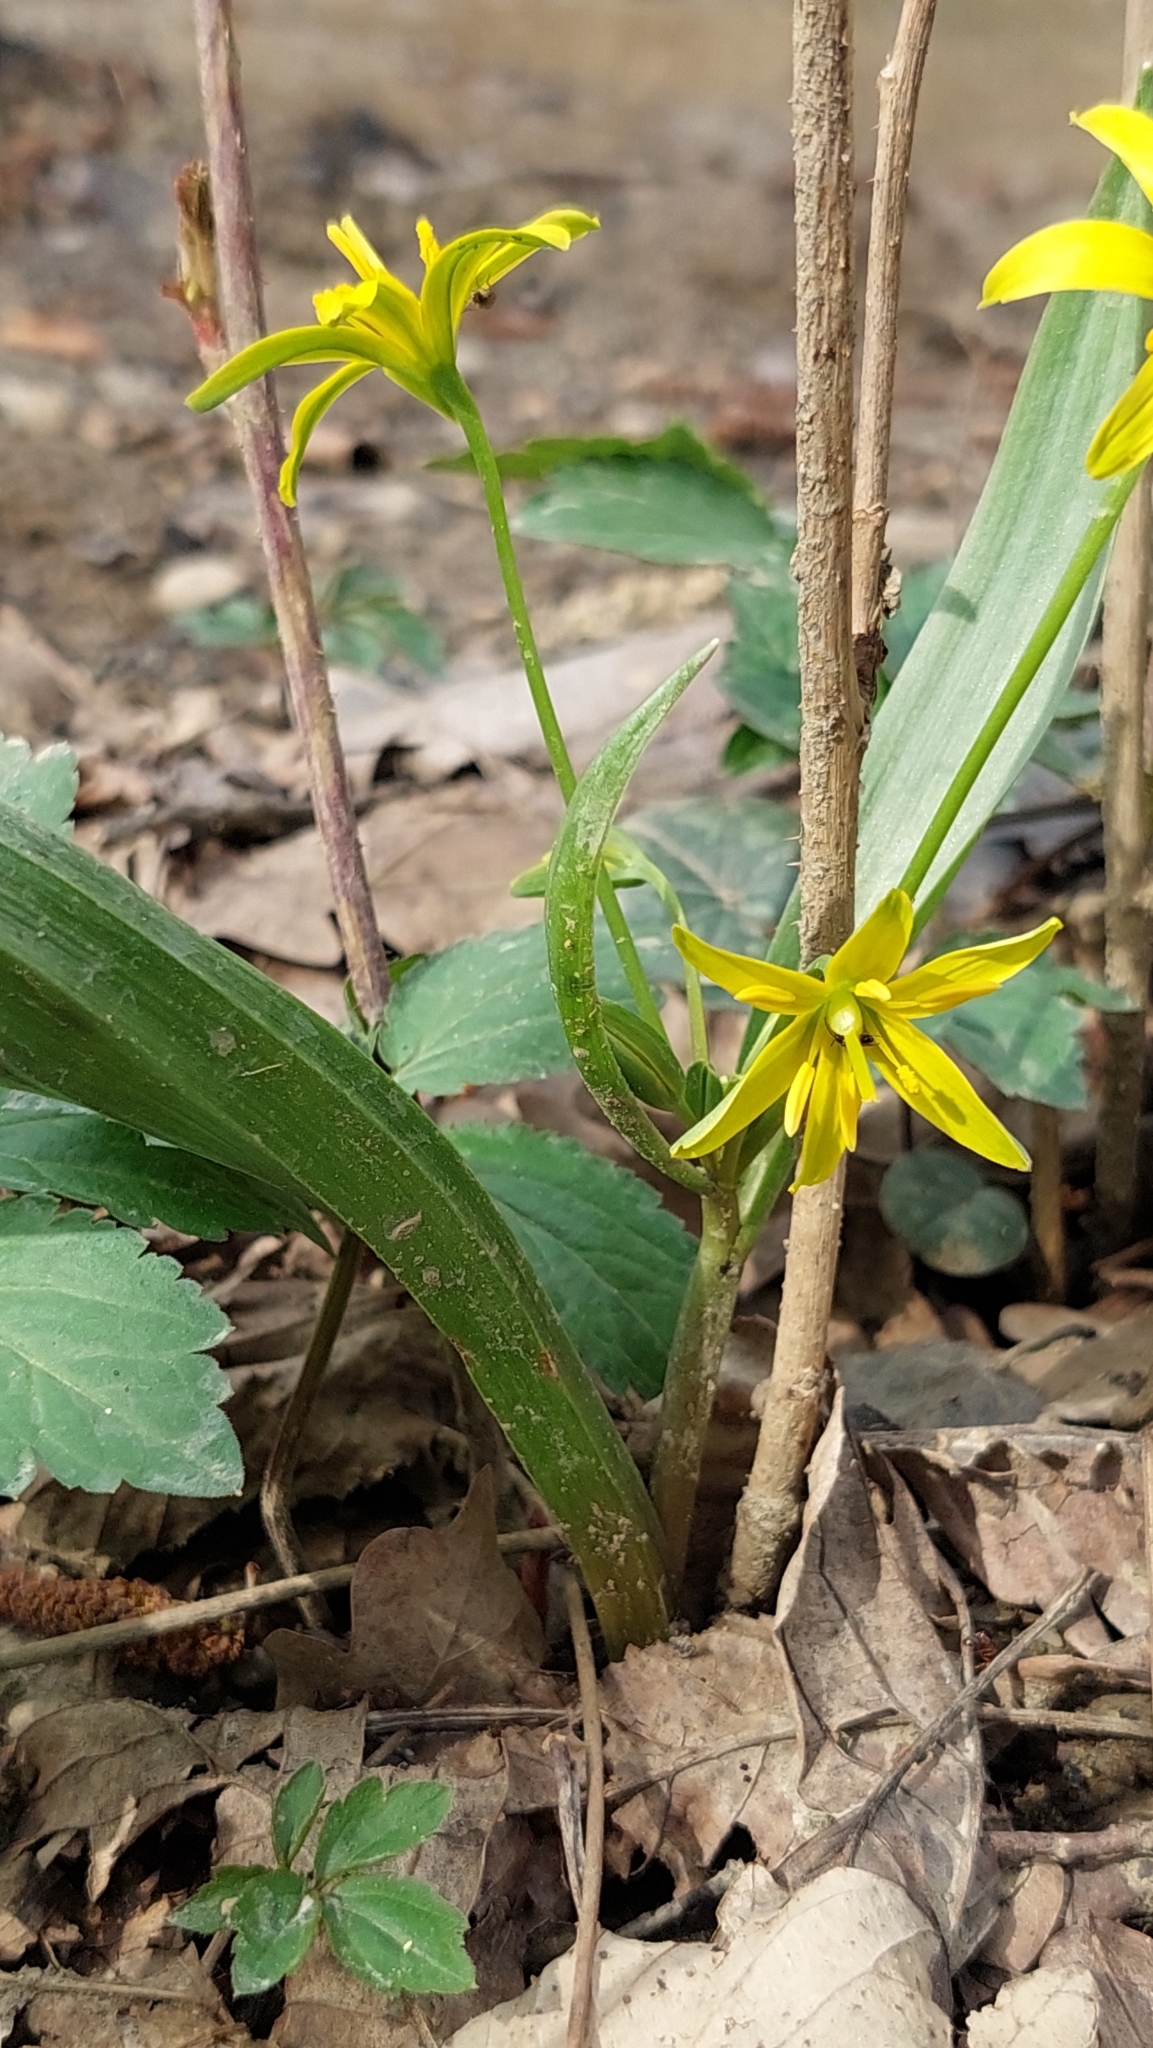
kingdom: Plantae
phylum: Tracheophyta
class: Liliopsida
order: Liliales
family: Liliaceae
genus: Gagea
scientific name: Gagea lutea
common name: Yellow star-of-bethlehem
